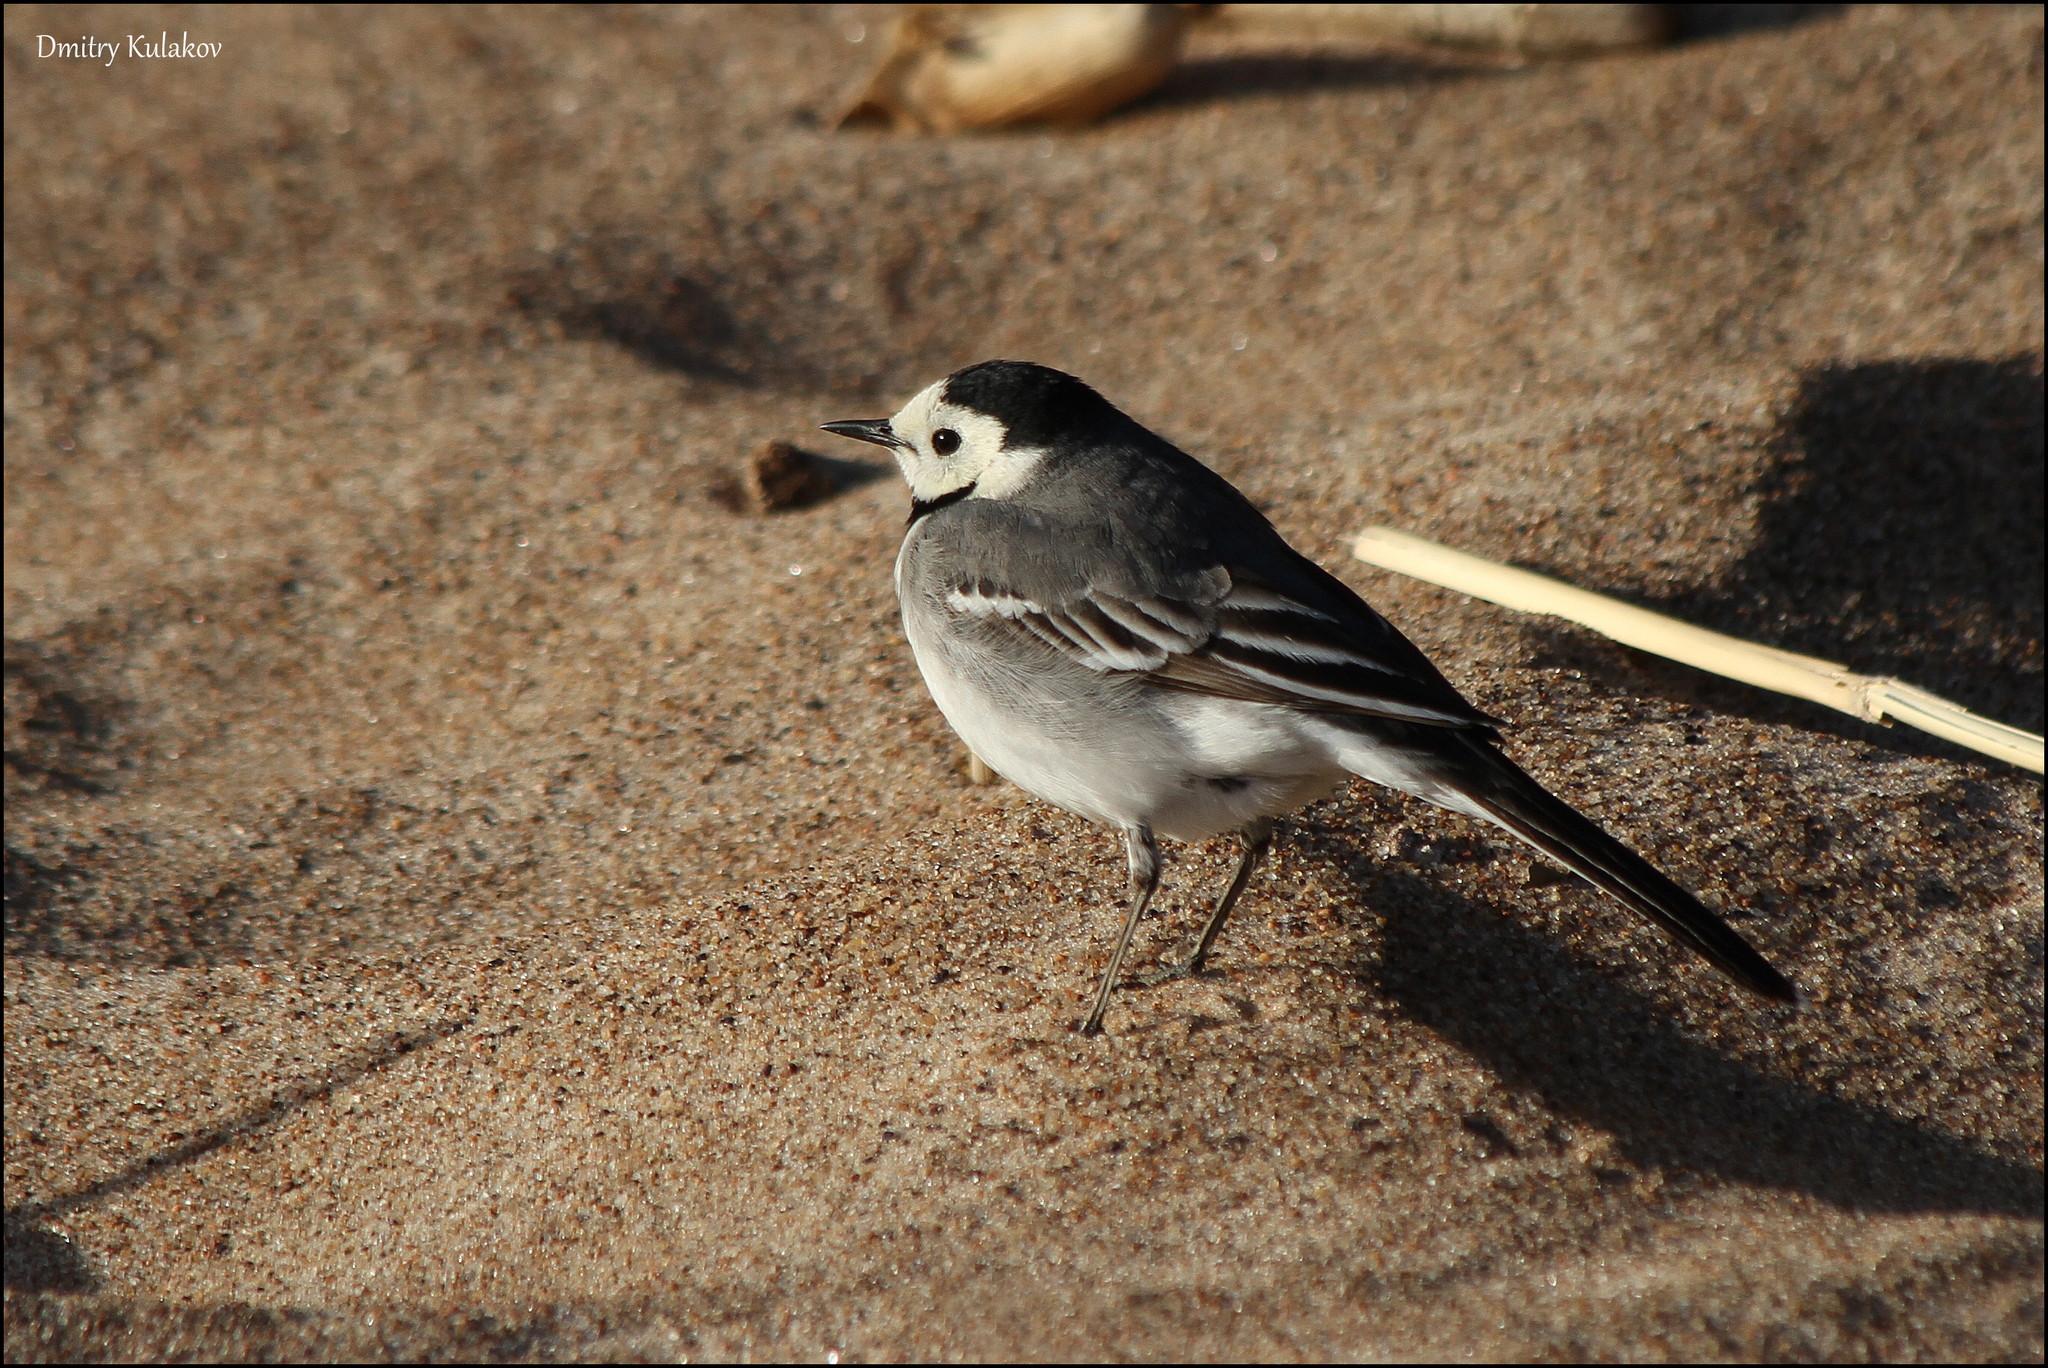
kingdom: Animalia
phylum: Chordata
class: Aves
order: Passeriformes
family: Motacillidae
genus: Motacilla
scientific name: Motacilla alba
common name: White wagtail
